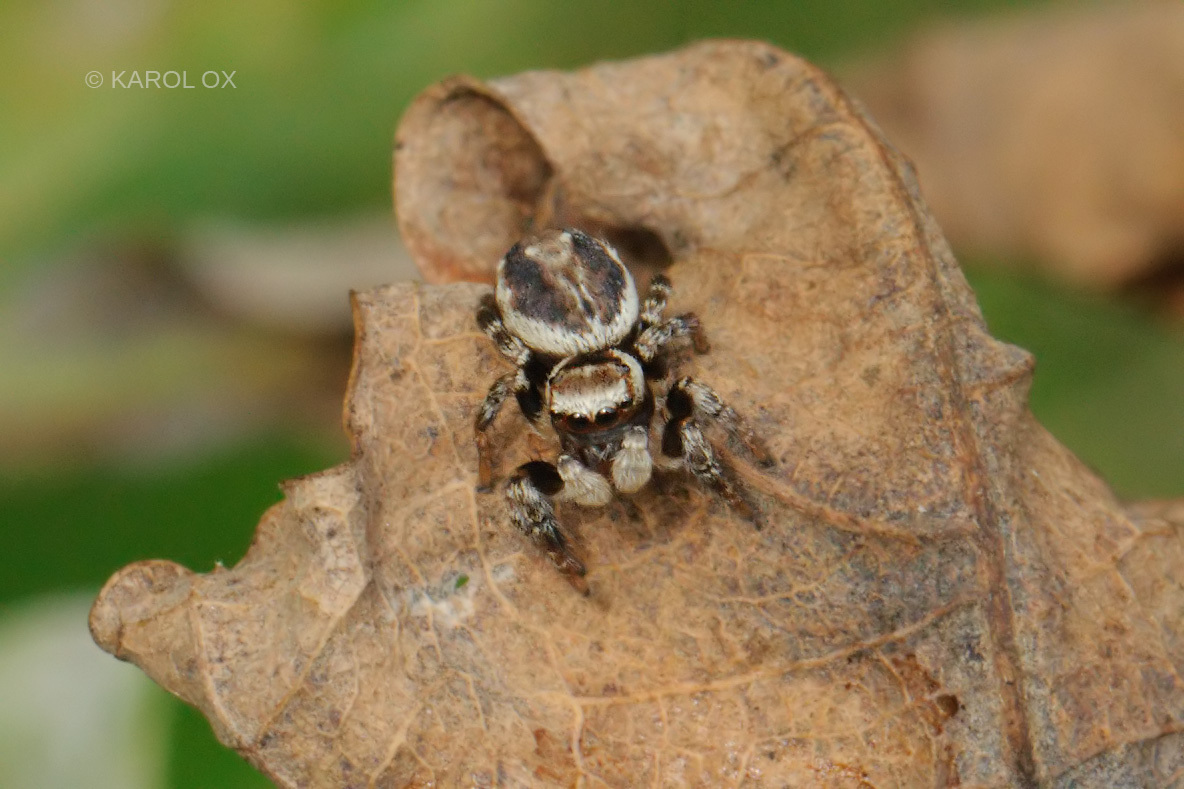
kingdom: Animalia
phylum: Arthropoda
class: Arachnida
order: Araneae
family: Salticidae
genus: Evarcha
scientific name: Evarcha falcata
